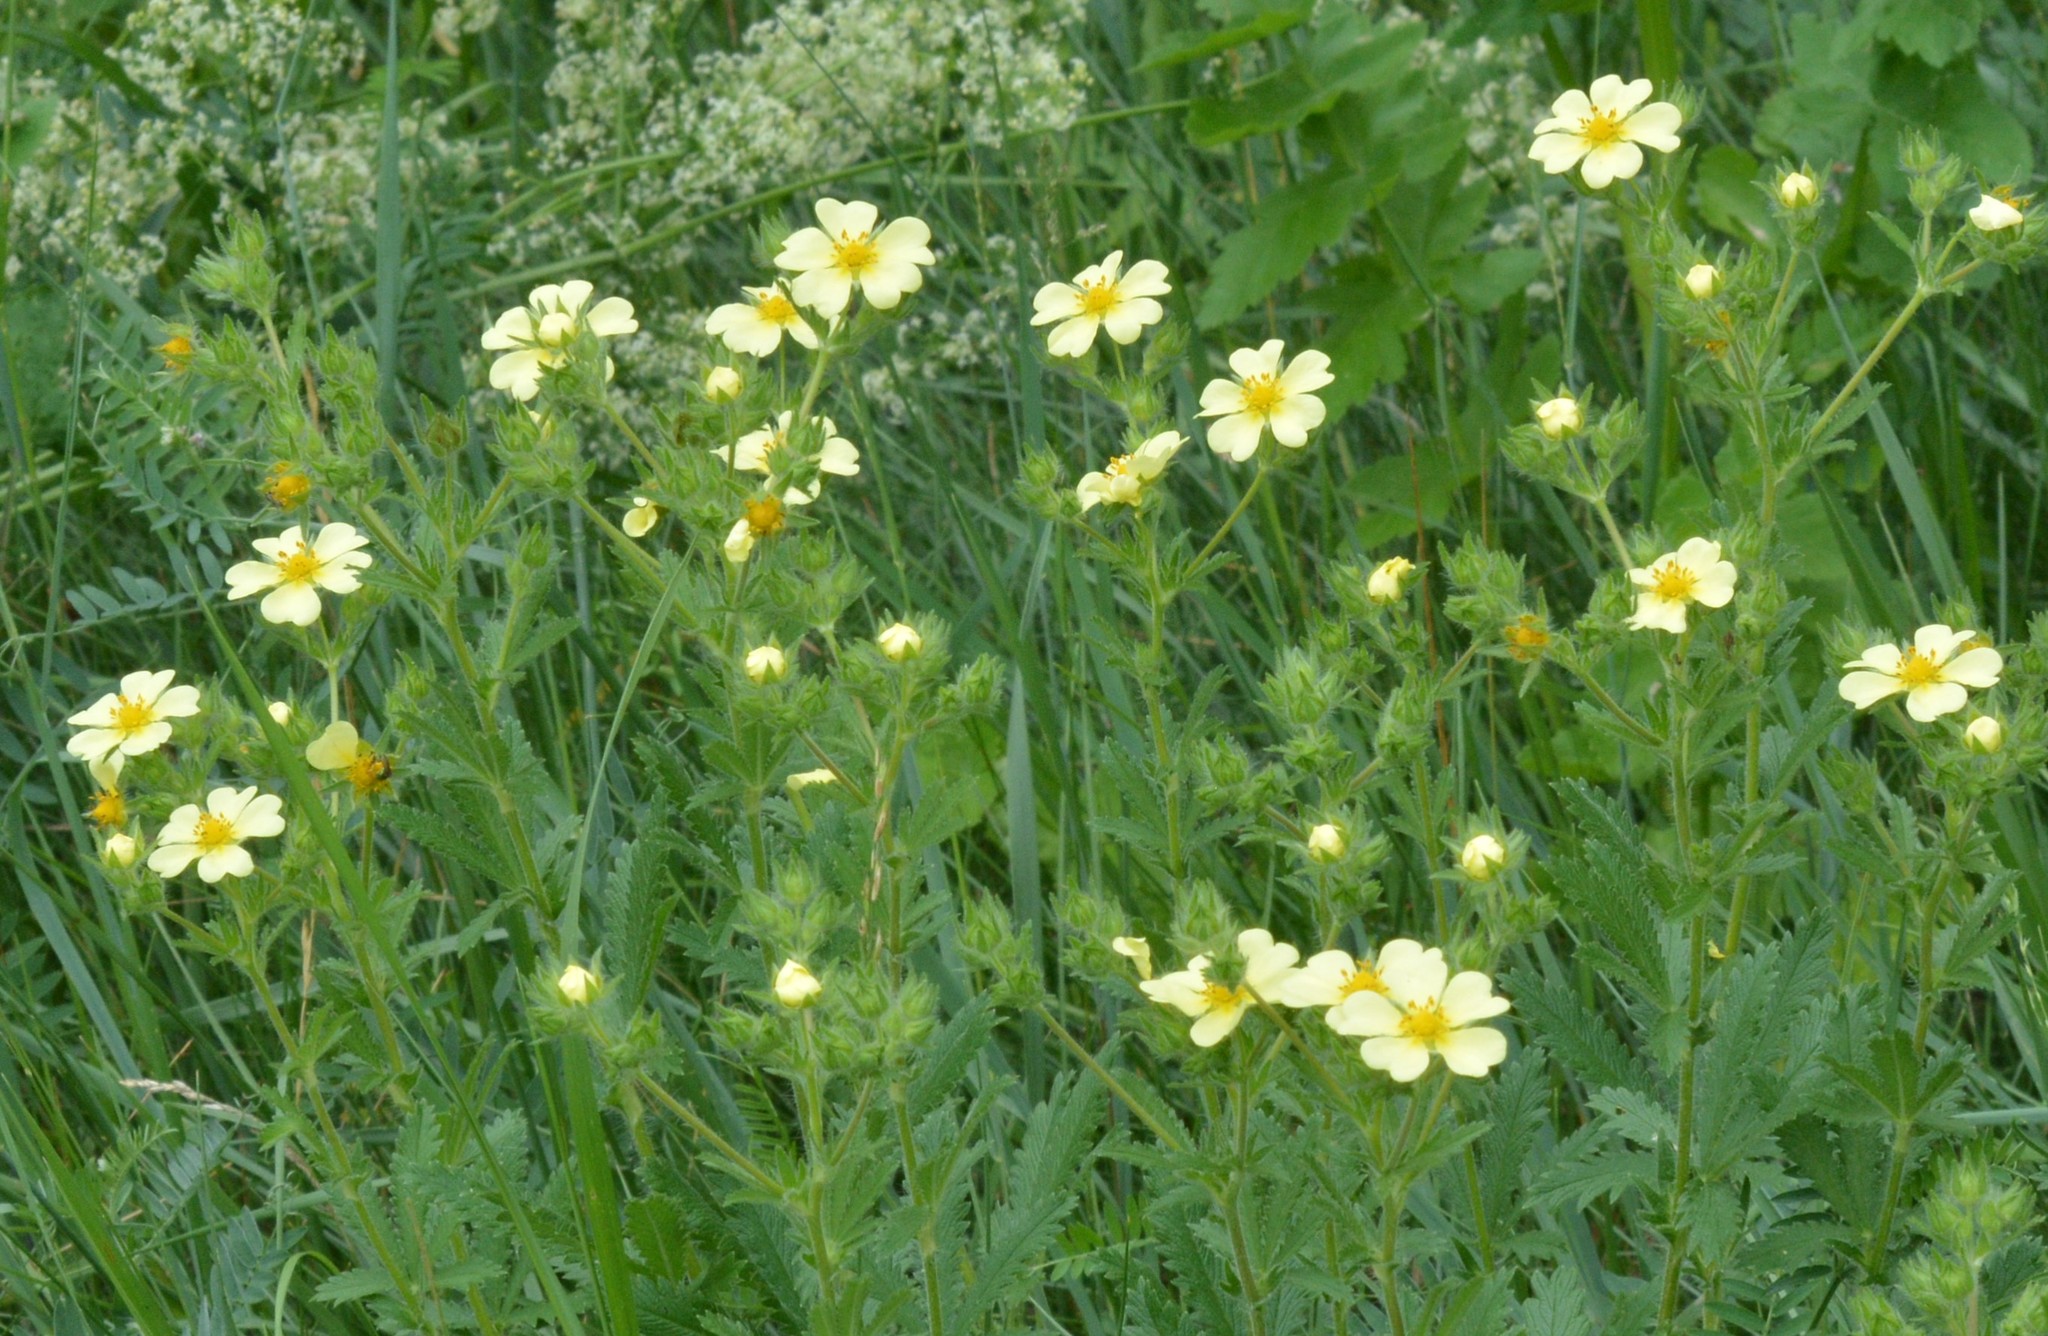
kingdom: Plantae
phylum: Tracheophyta
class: Magnoliopsida
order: Rosales
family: Rosaceae
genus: Potentilla
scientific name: Potentilla recta
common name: Sulphur cinquefoil
